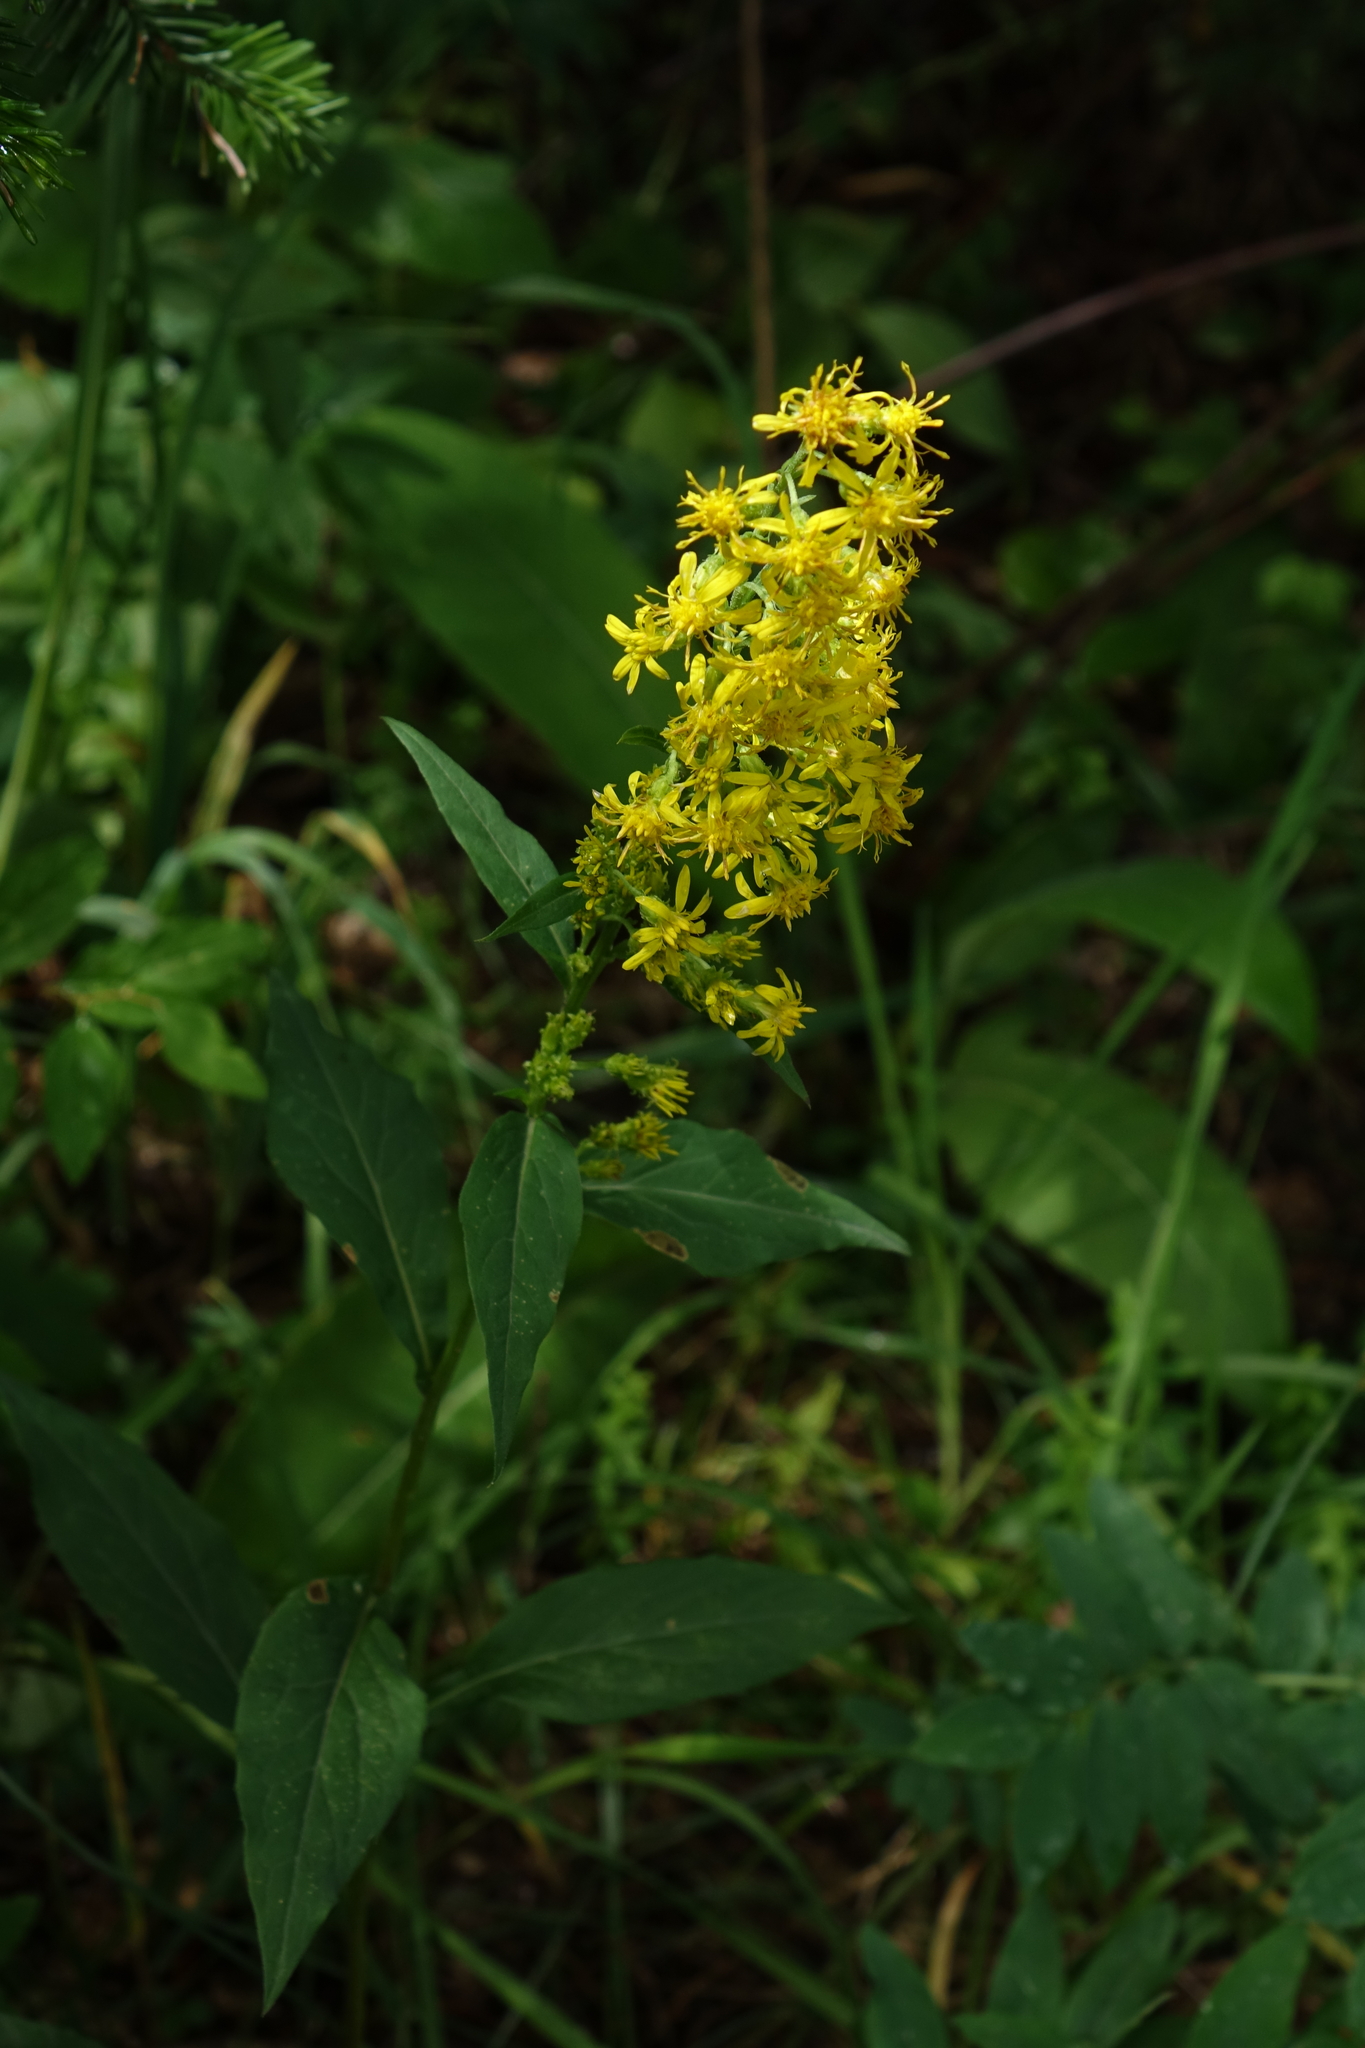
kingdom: Plantae
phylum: Tracheophyta
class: Magnoliopsida
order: Asterales
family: Asteraceae
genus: Solidago
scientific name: Solidago virgaurea
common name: Goldenrod
